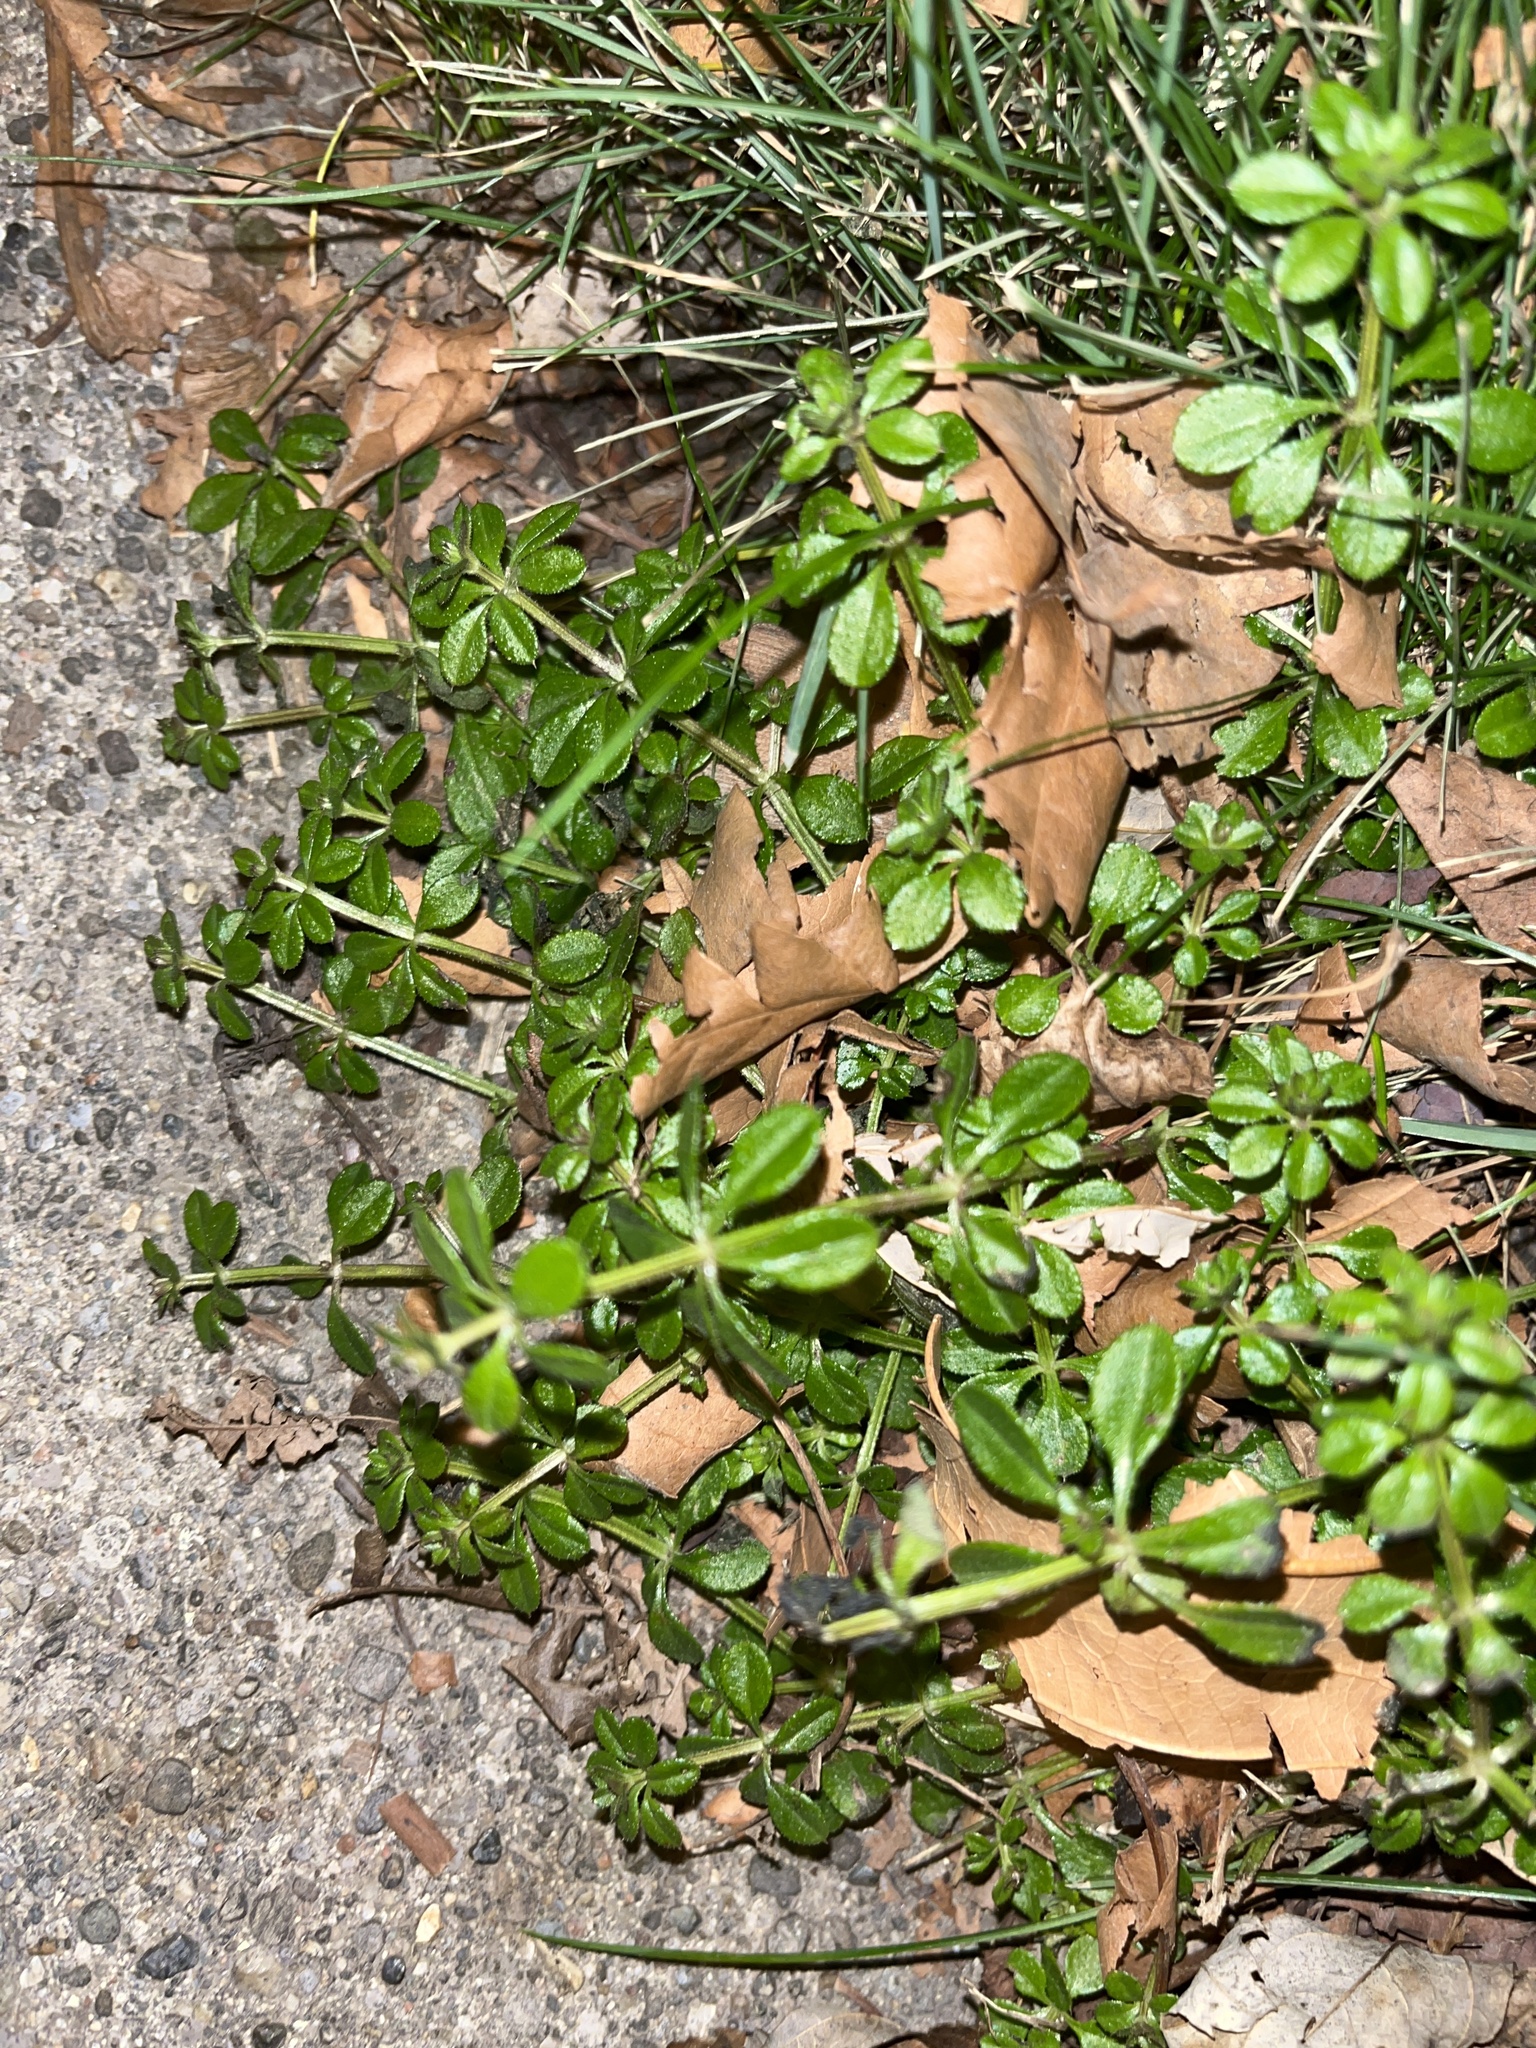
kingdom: Plantae
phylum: Tracheophyta
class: Magnoliopsida
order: Gentianales
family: Rubiaceae
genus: Galium
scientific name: Galium aparine
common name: Cleavers
